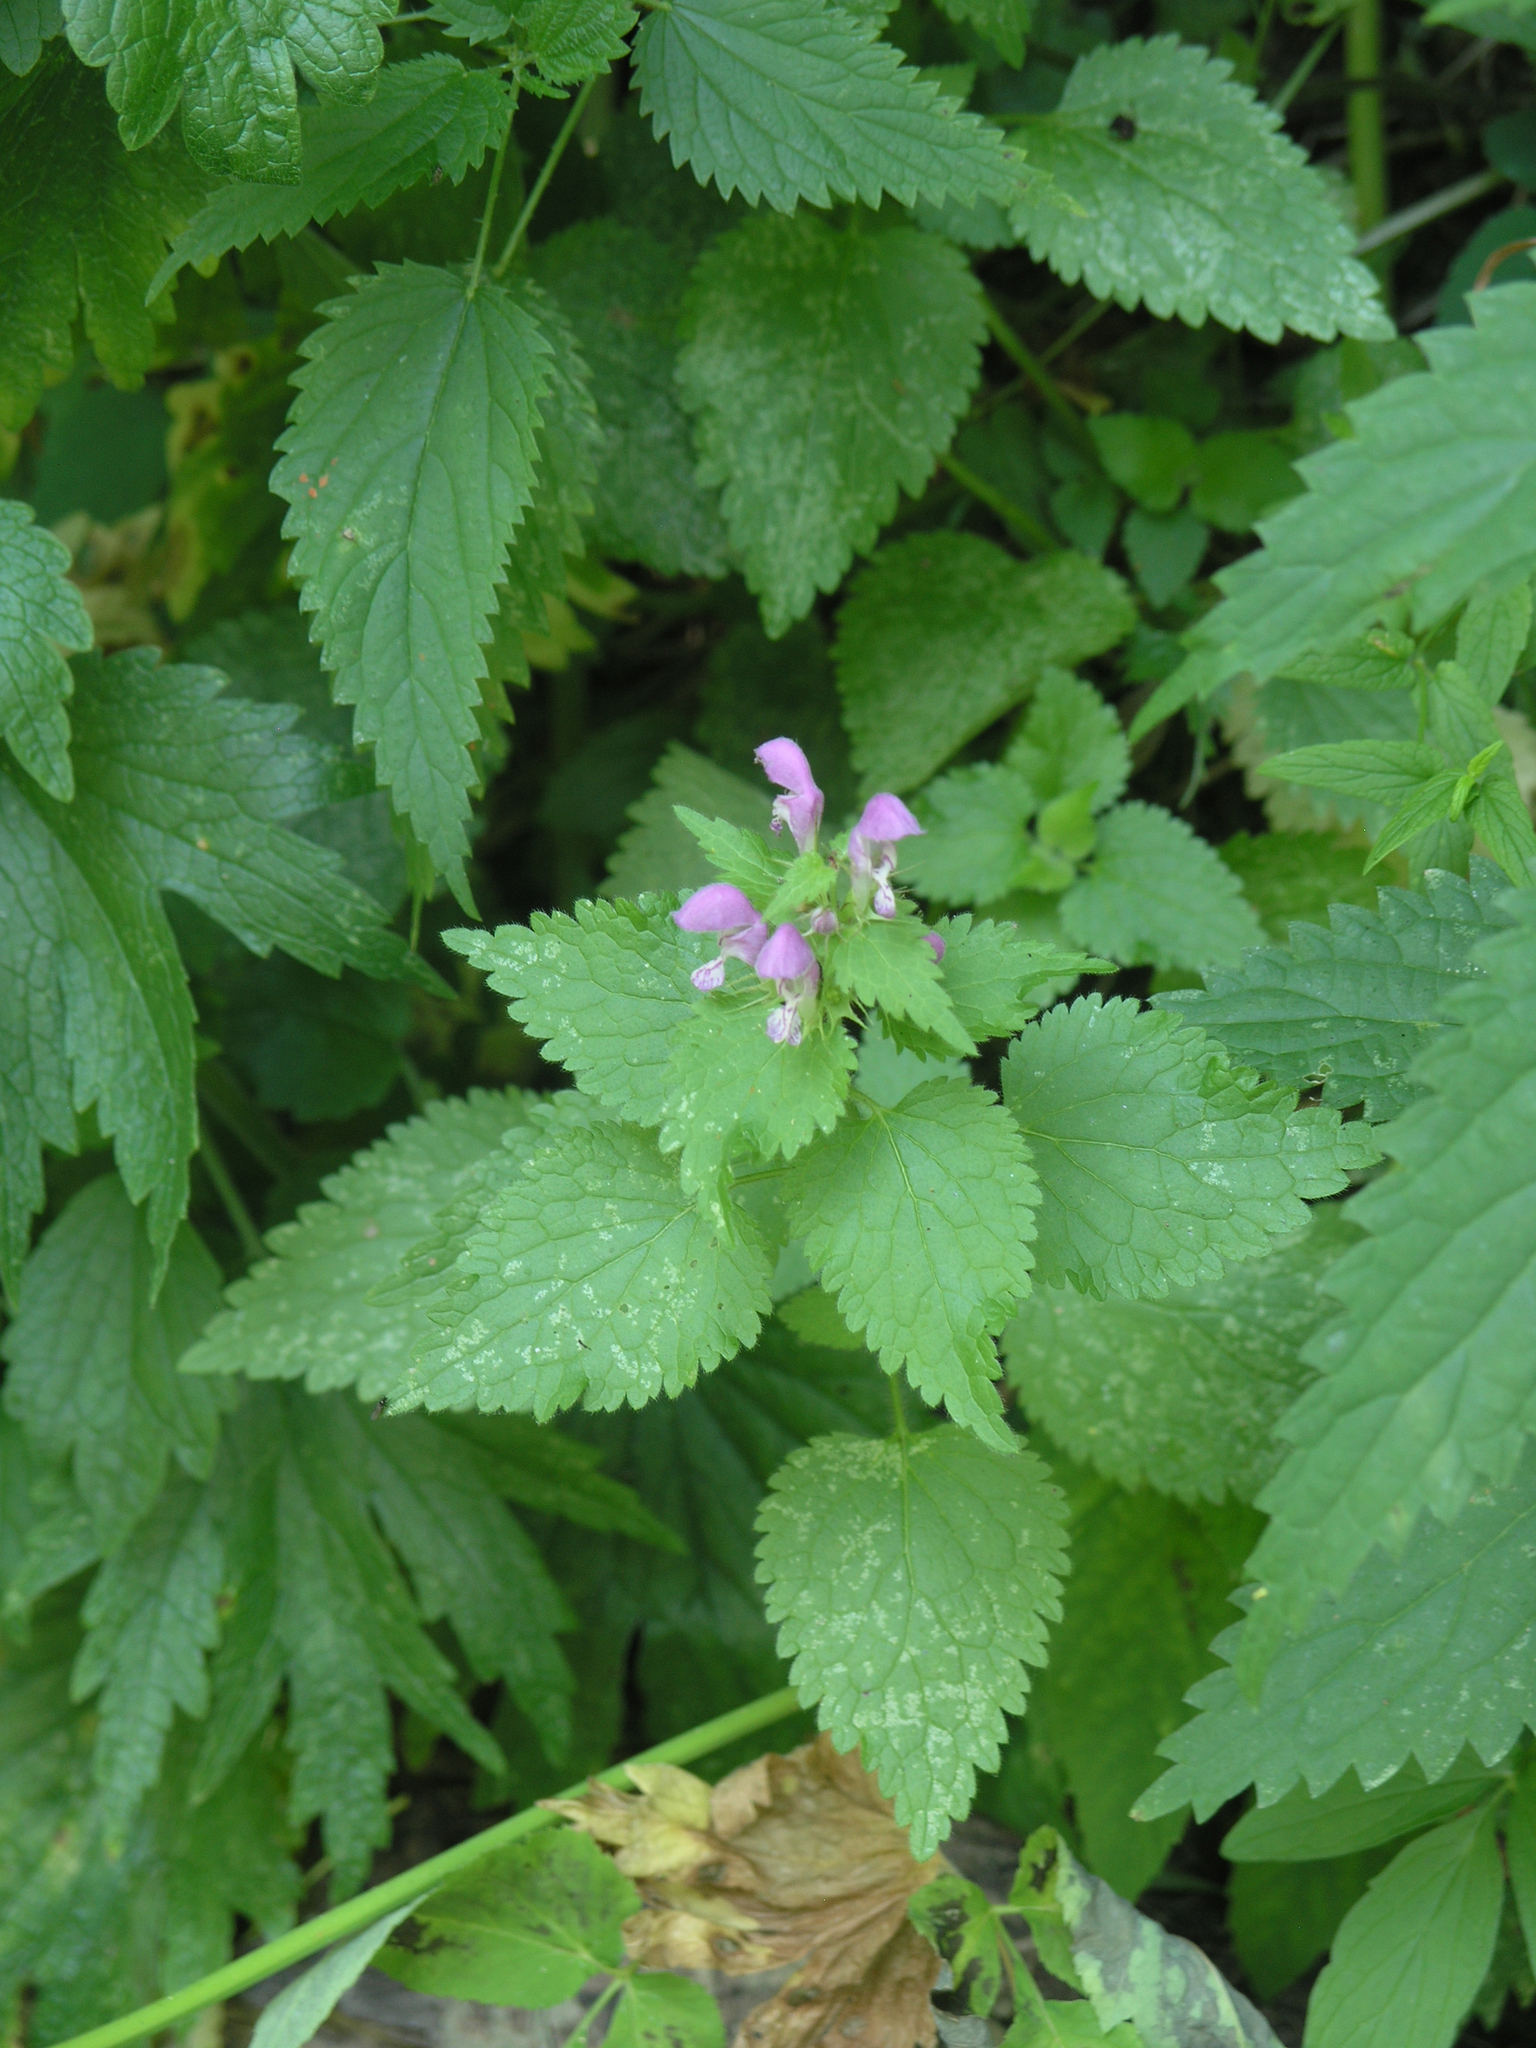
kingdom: Plantae
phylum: Tracheophyta
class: Magnoliopsida
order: Lamiales
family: Lamiaceae
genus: Lamium
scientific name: Lamium maculatum
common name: Spotted dead-nettle
